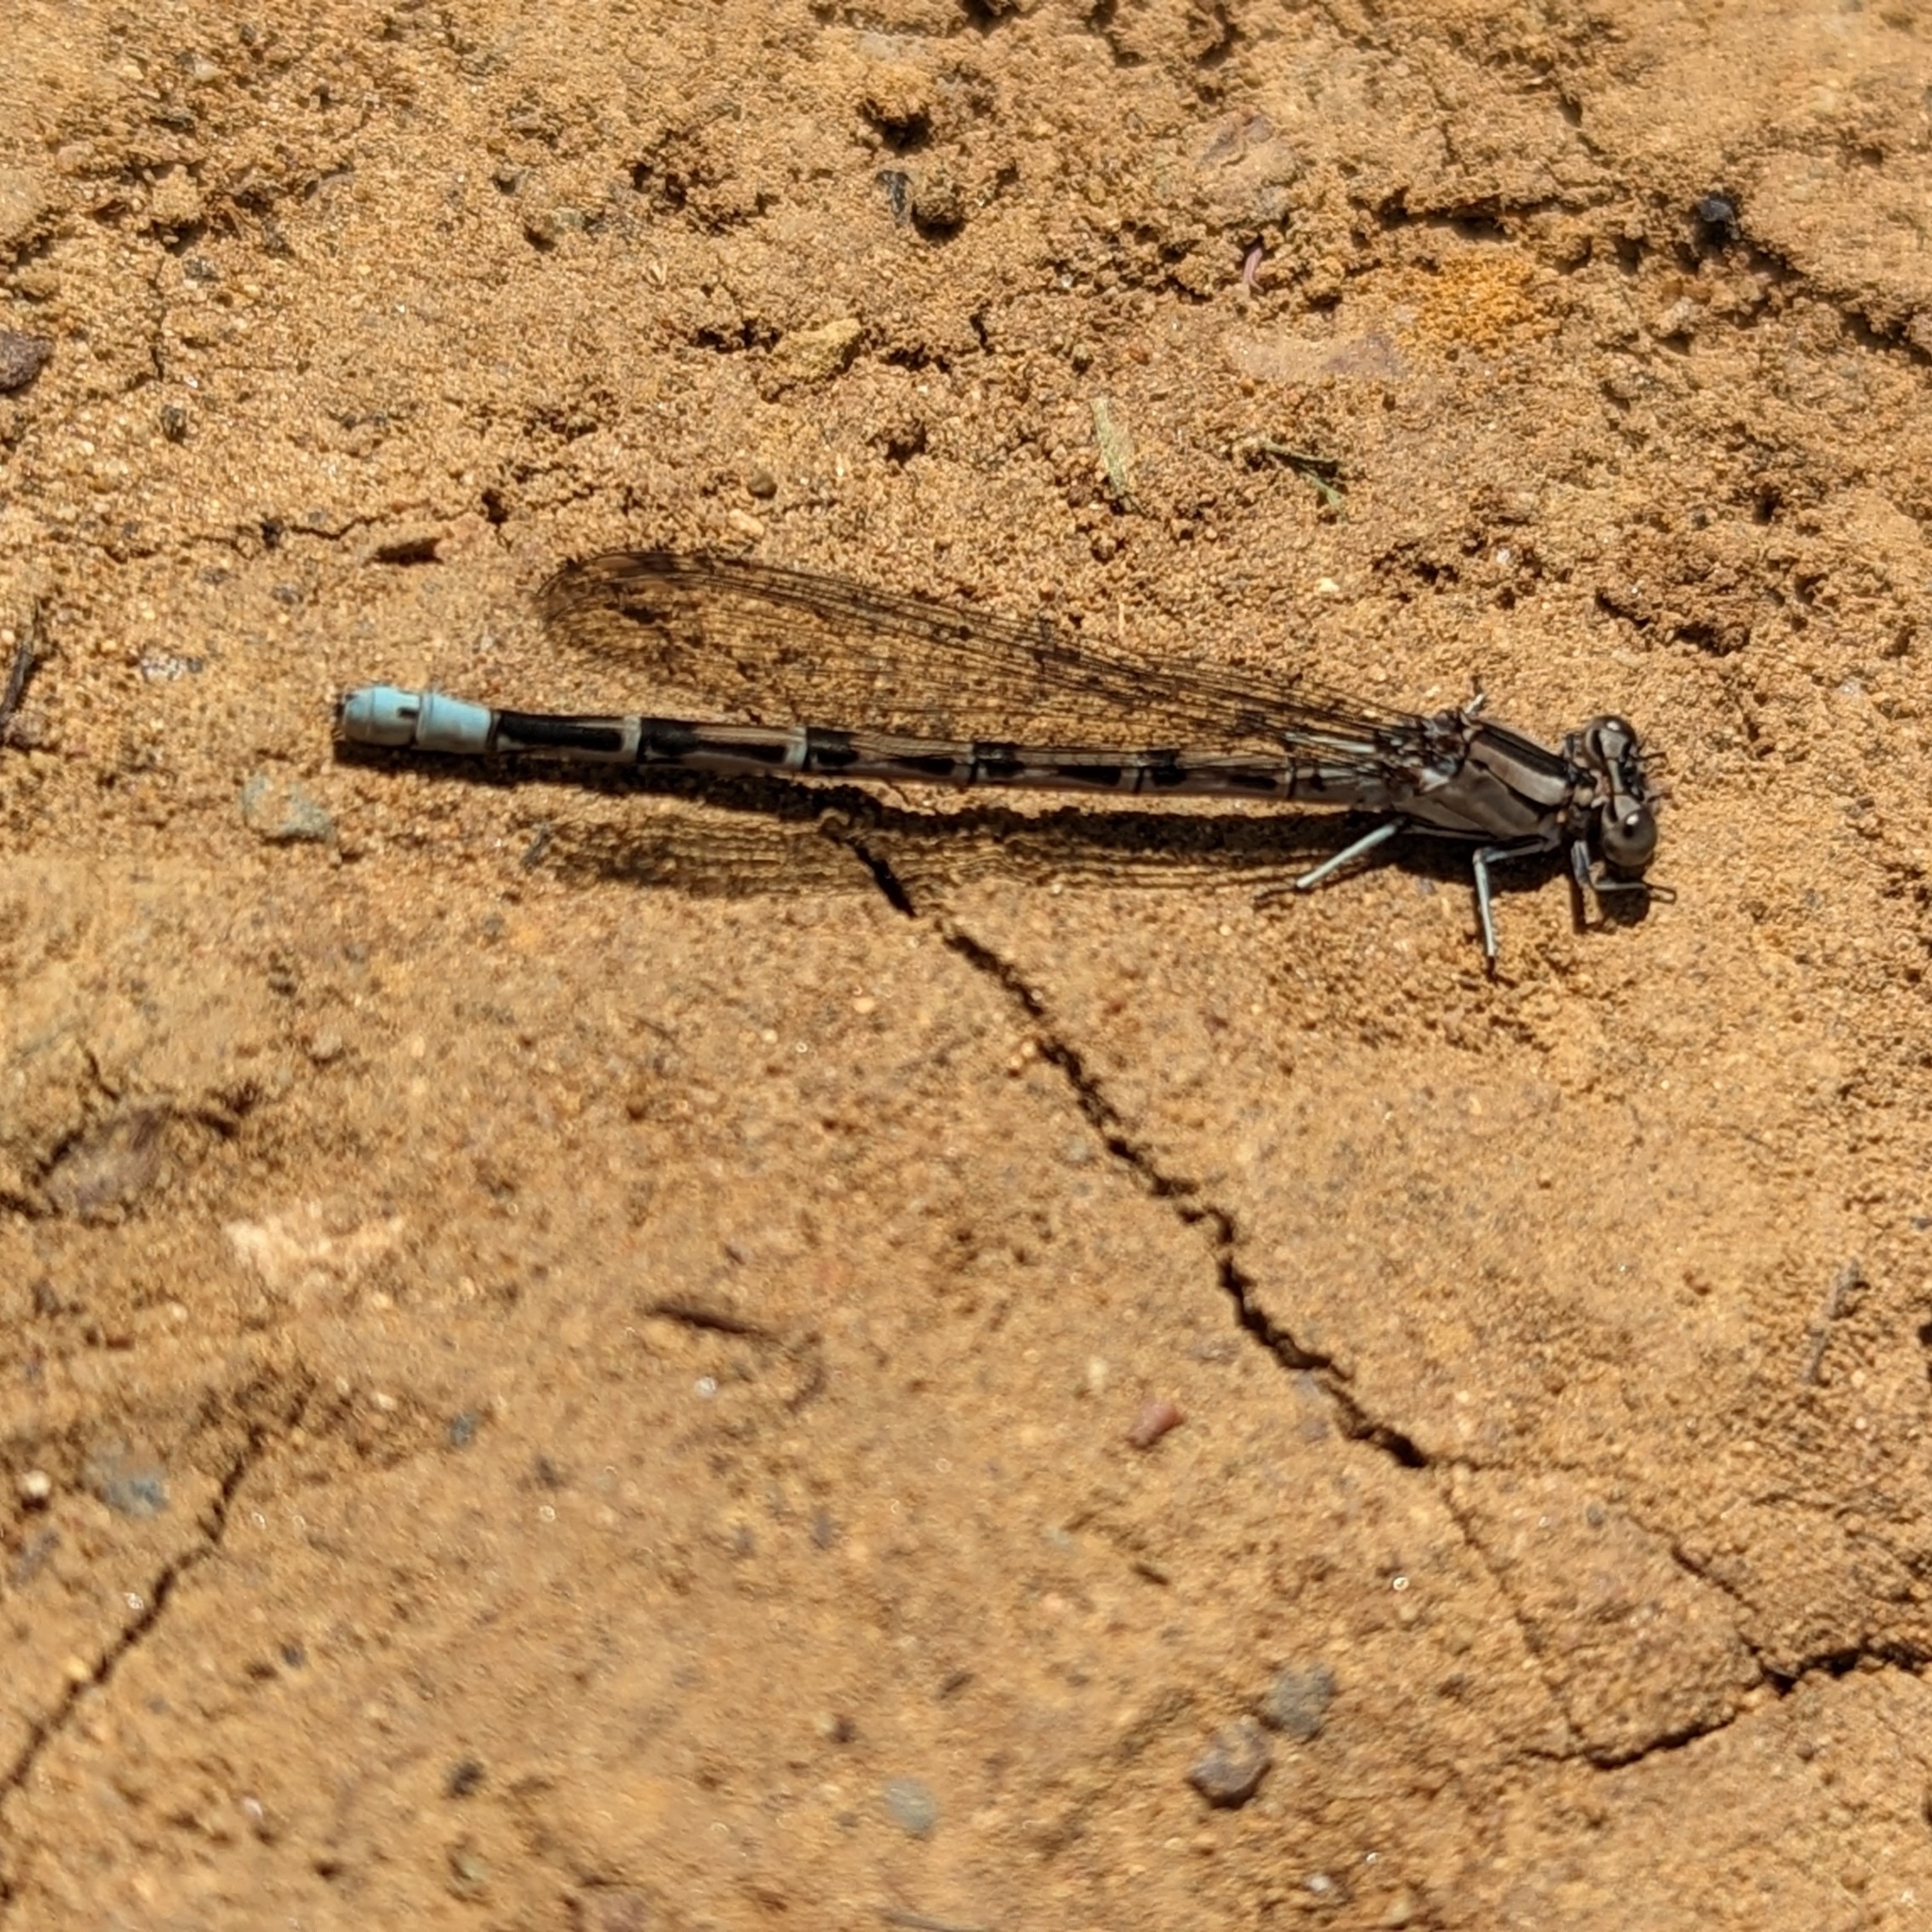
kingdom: Animalia
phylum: Arthropoda
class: Insecta
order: Odonata
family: Coenagrionidae
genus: Argia
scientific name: Argia vivida
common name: Vivid dancer
